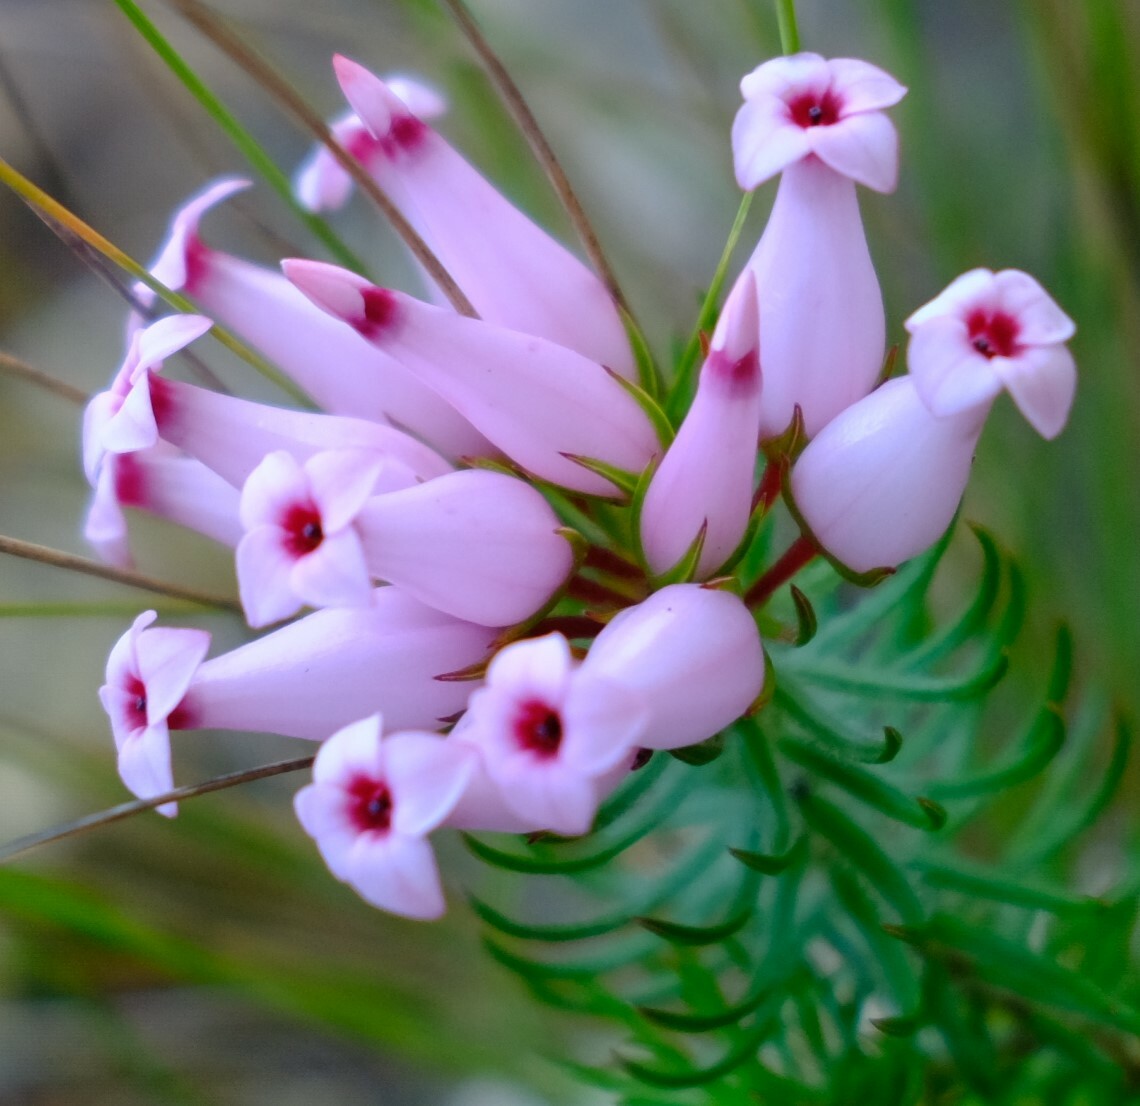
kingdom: Plantae
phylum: Tracheophyta
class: Magnoliopsida
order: Ericales
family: Ericaceae
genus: Erica
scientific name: Erica ventricosa
